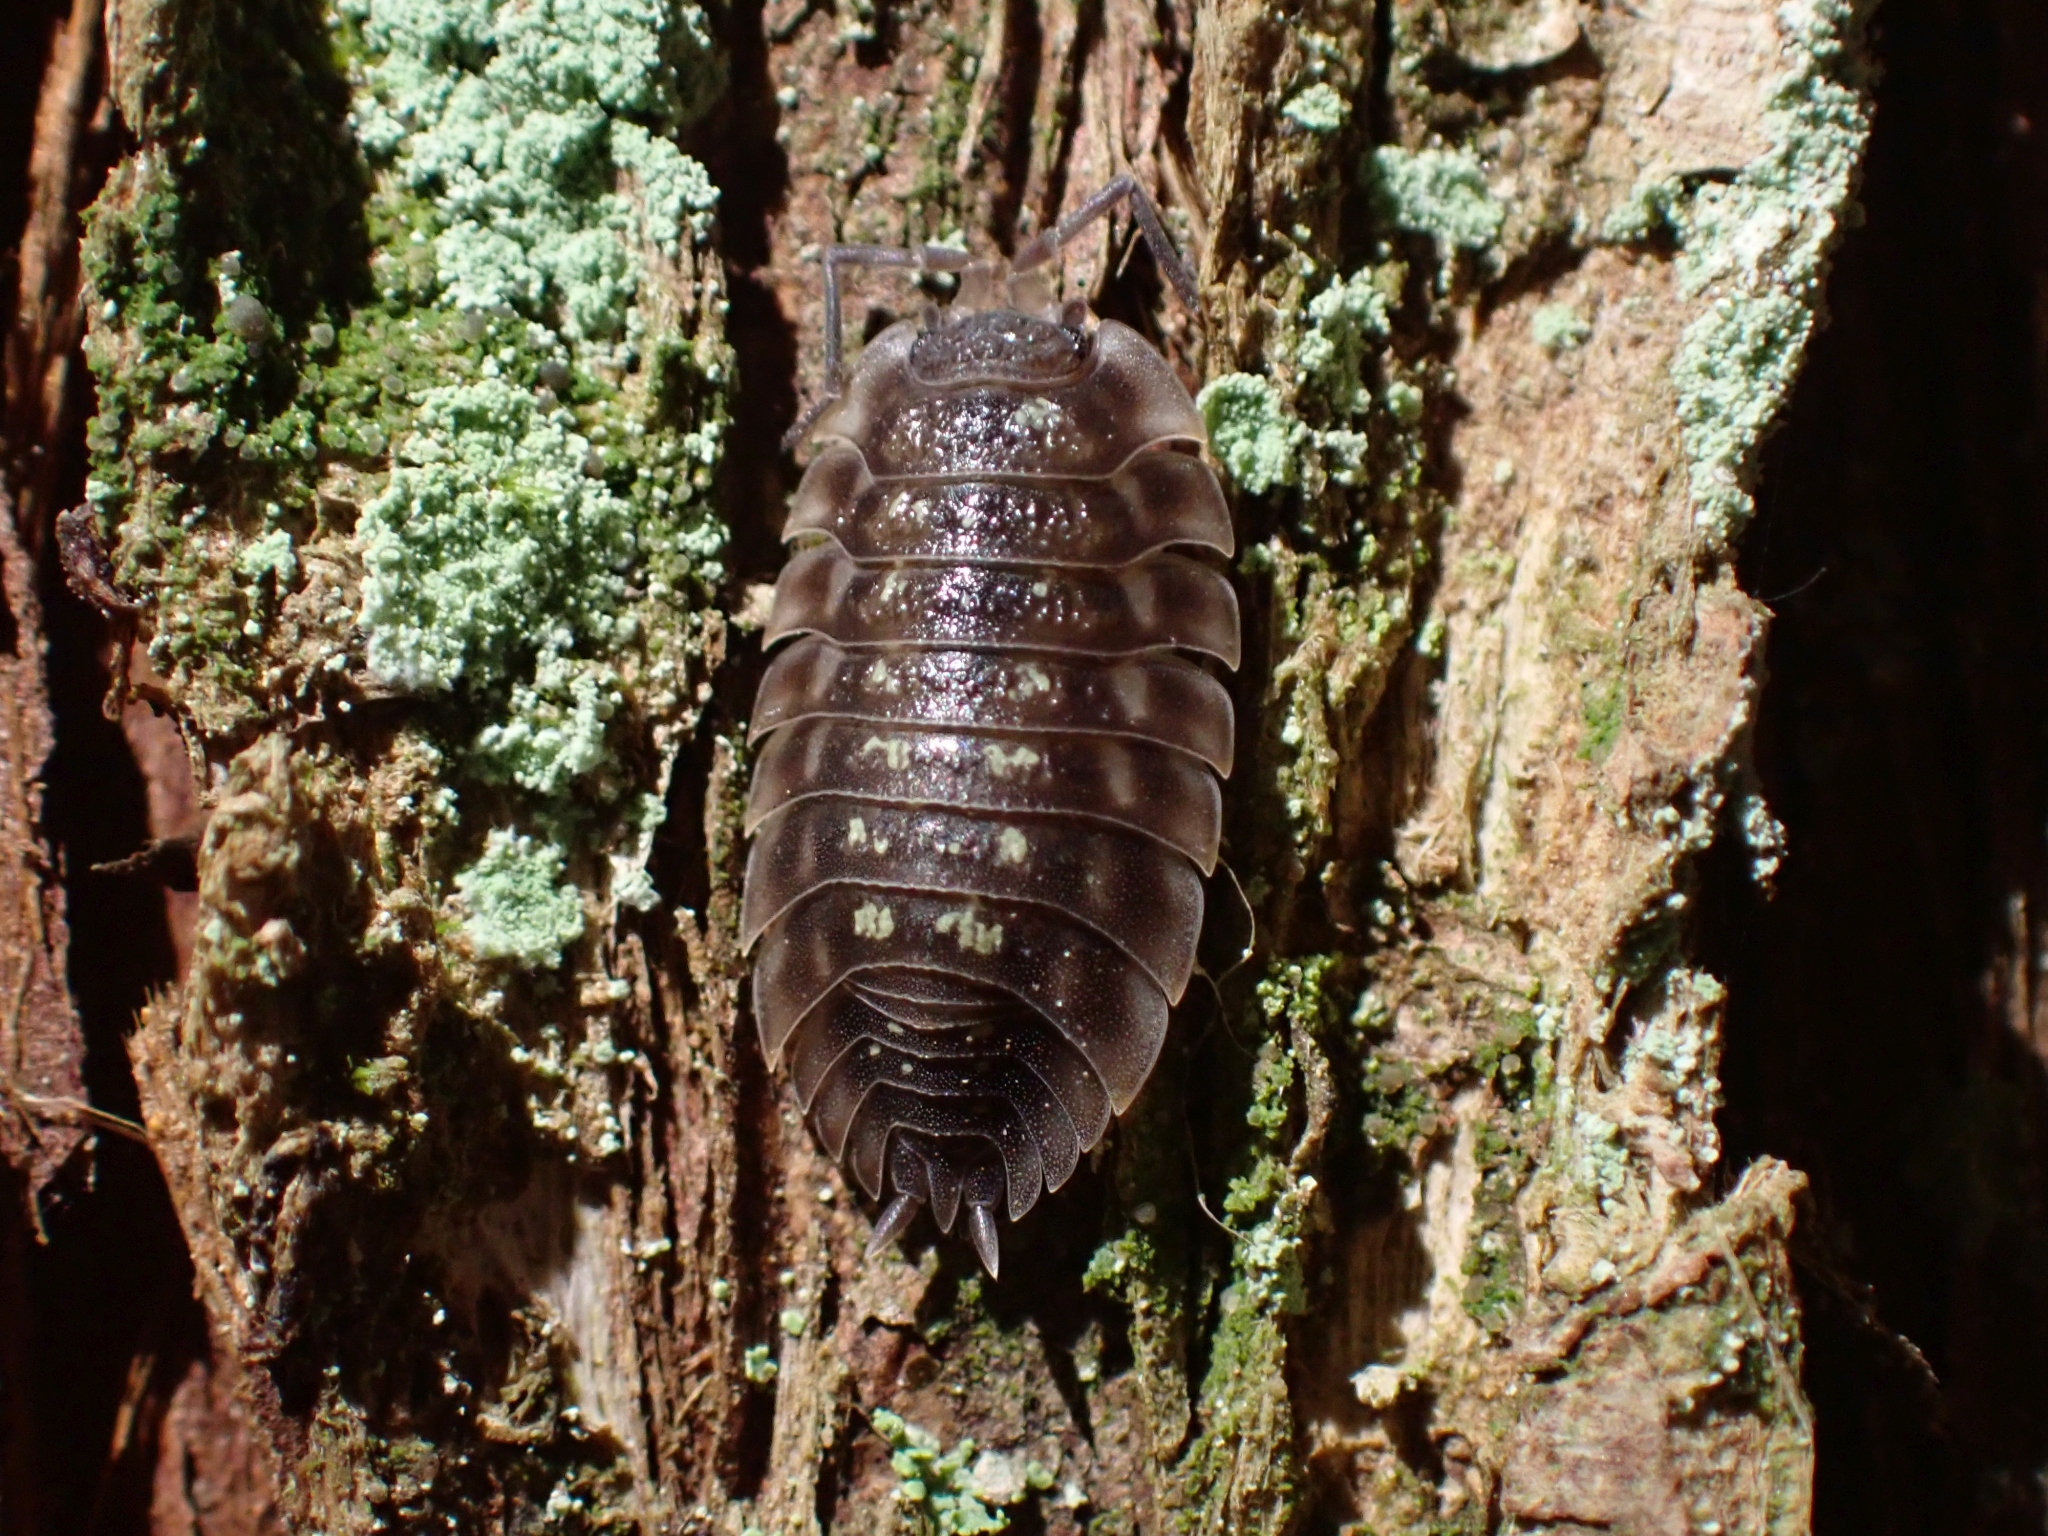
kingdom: Animalia
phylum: Arthropoda
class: Malacostraca
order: Isopoda
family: Oniscidae
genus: Oniscus
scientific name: Oniscus asellus
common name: Common shiny woodlouse
